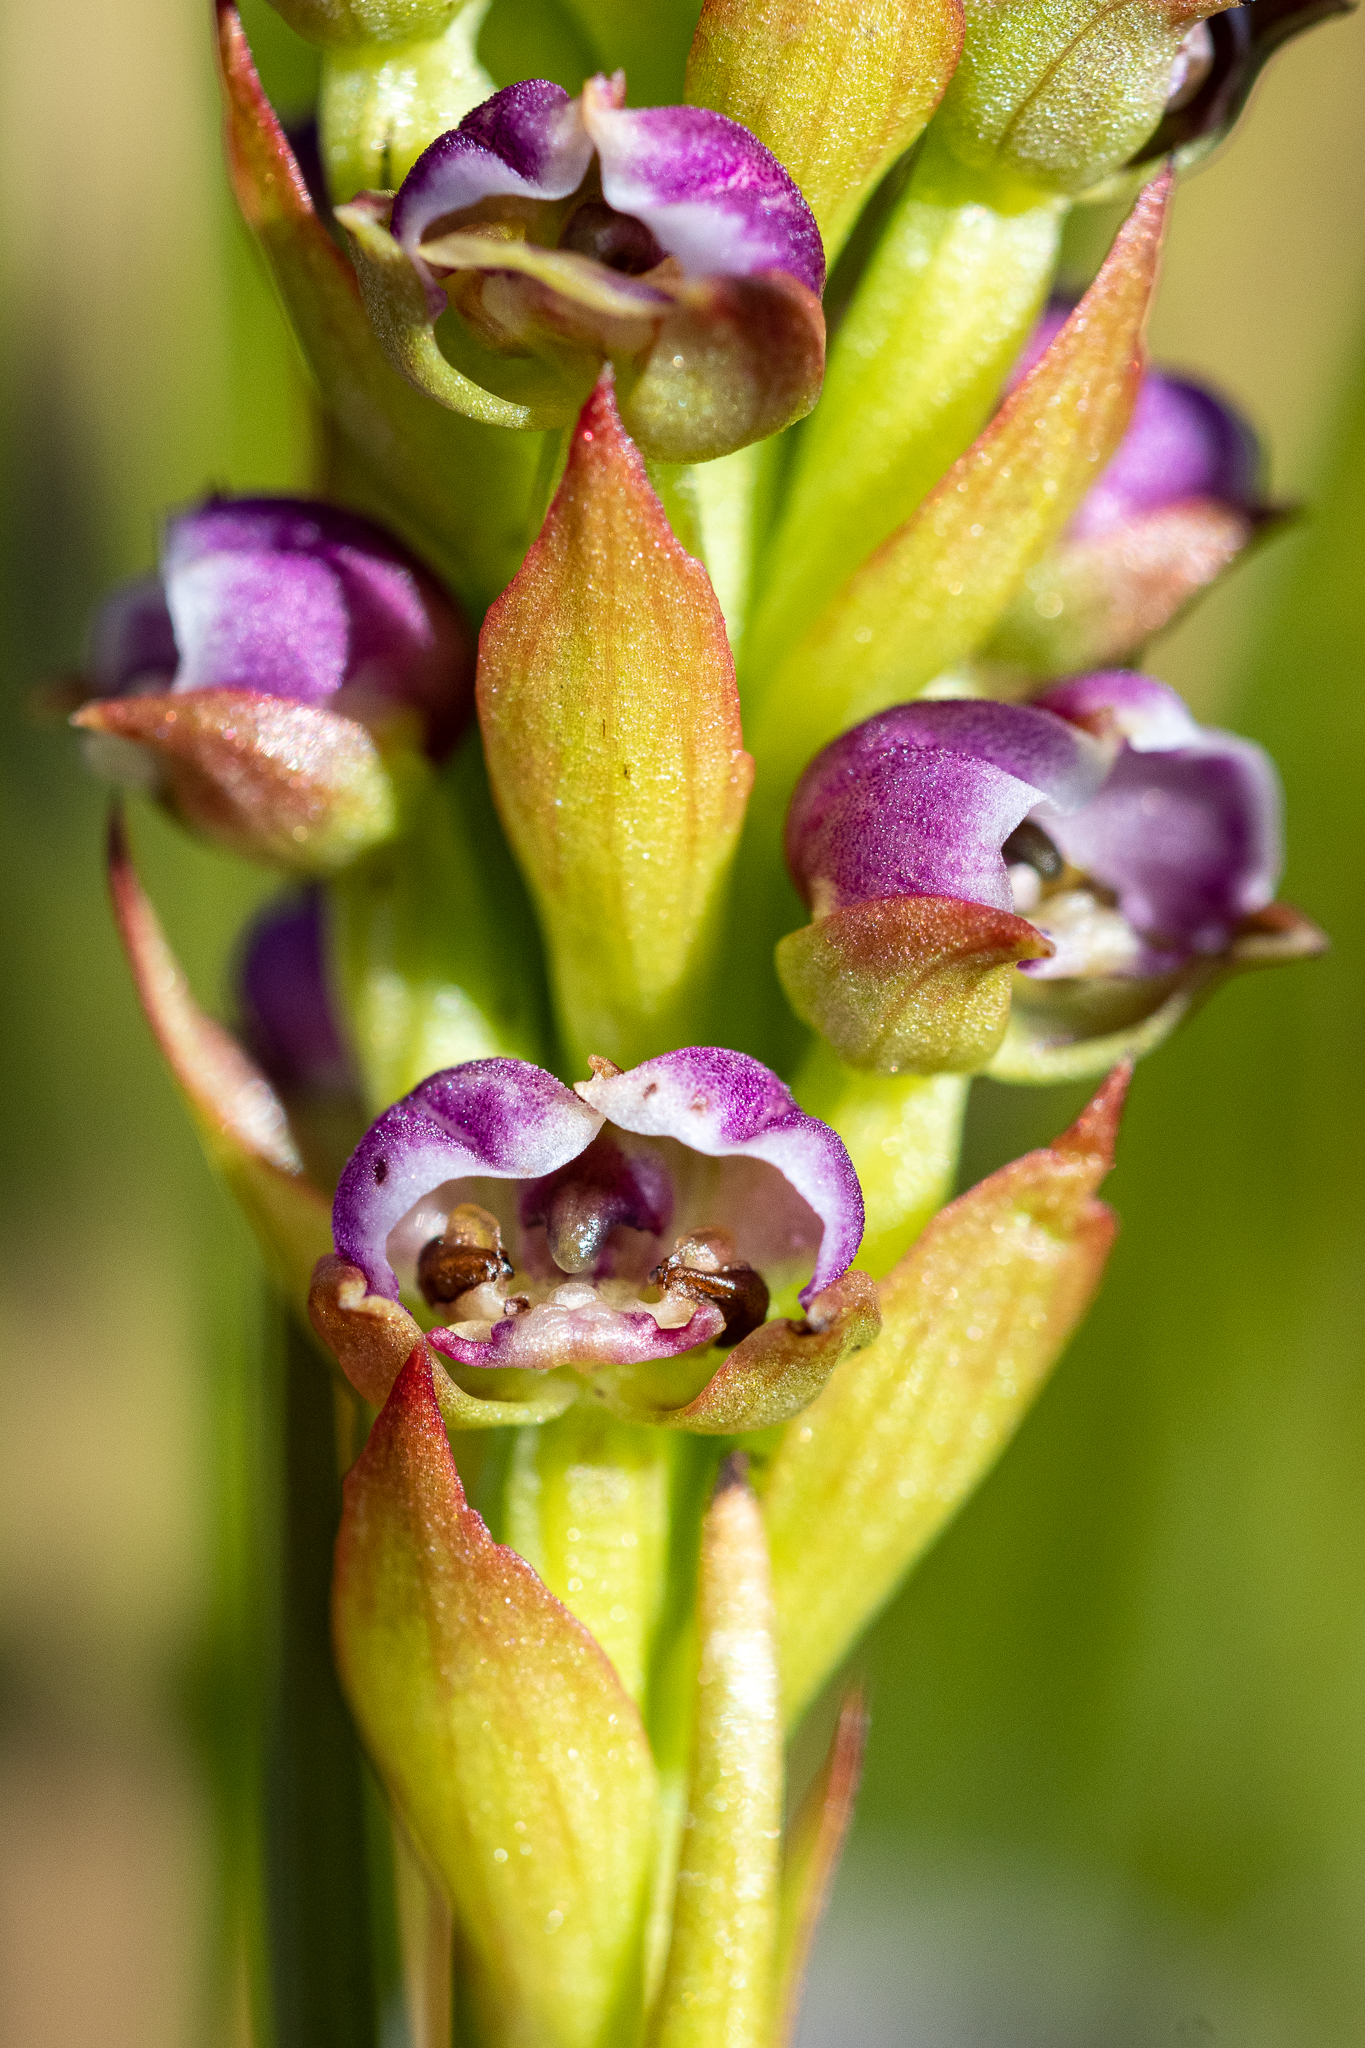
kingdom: Plantae
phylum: Tracheophyta
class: Liliopsida
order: Asparagales
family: Orchidaceae
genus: Evotella
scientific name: Evotella carnosa
